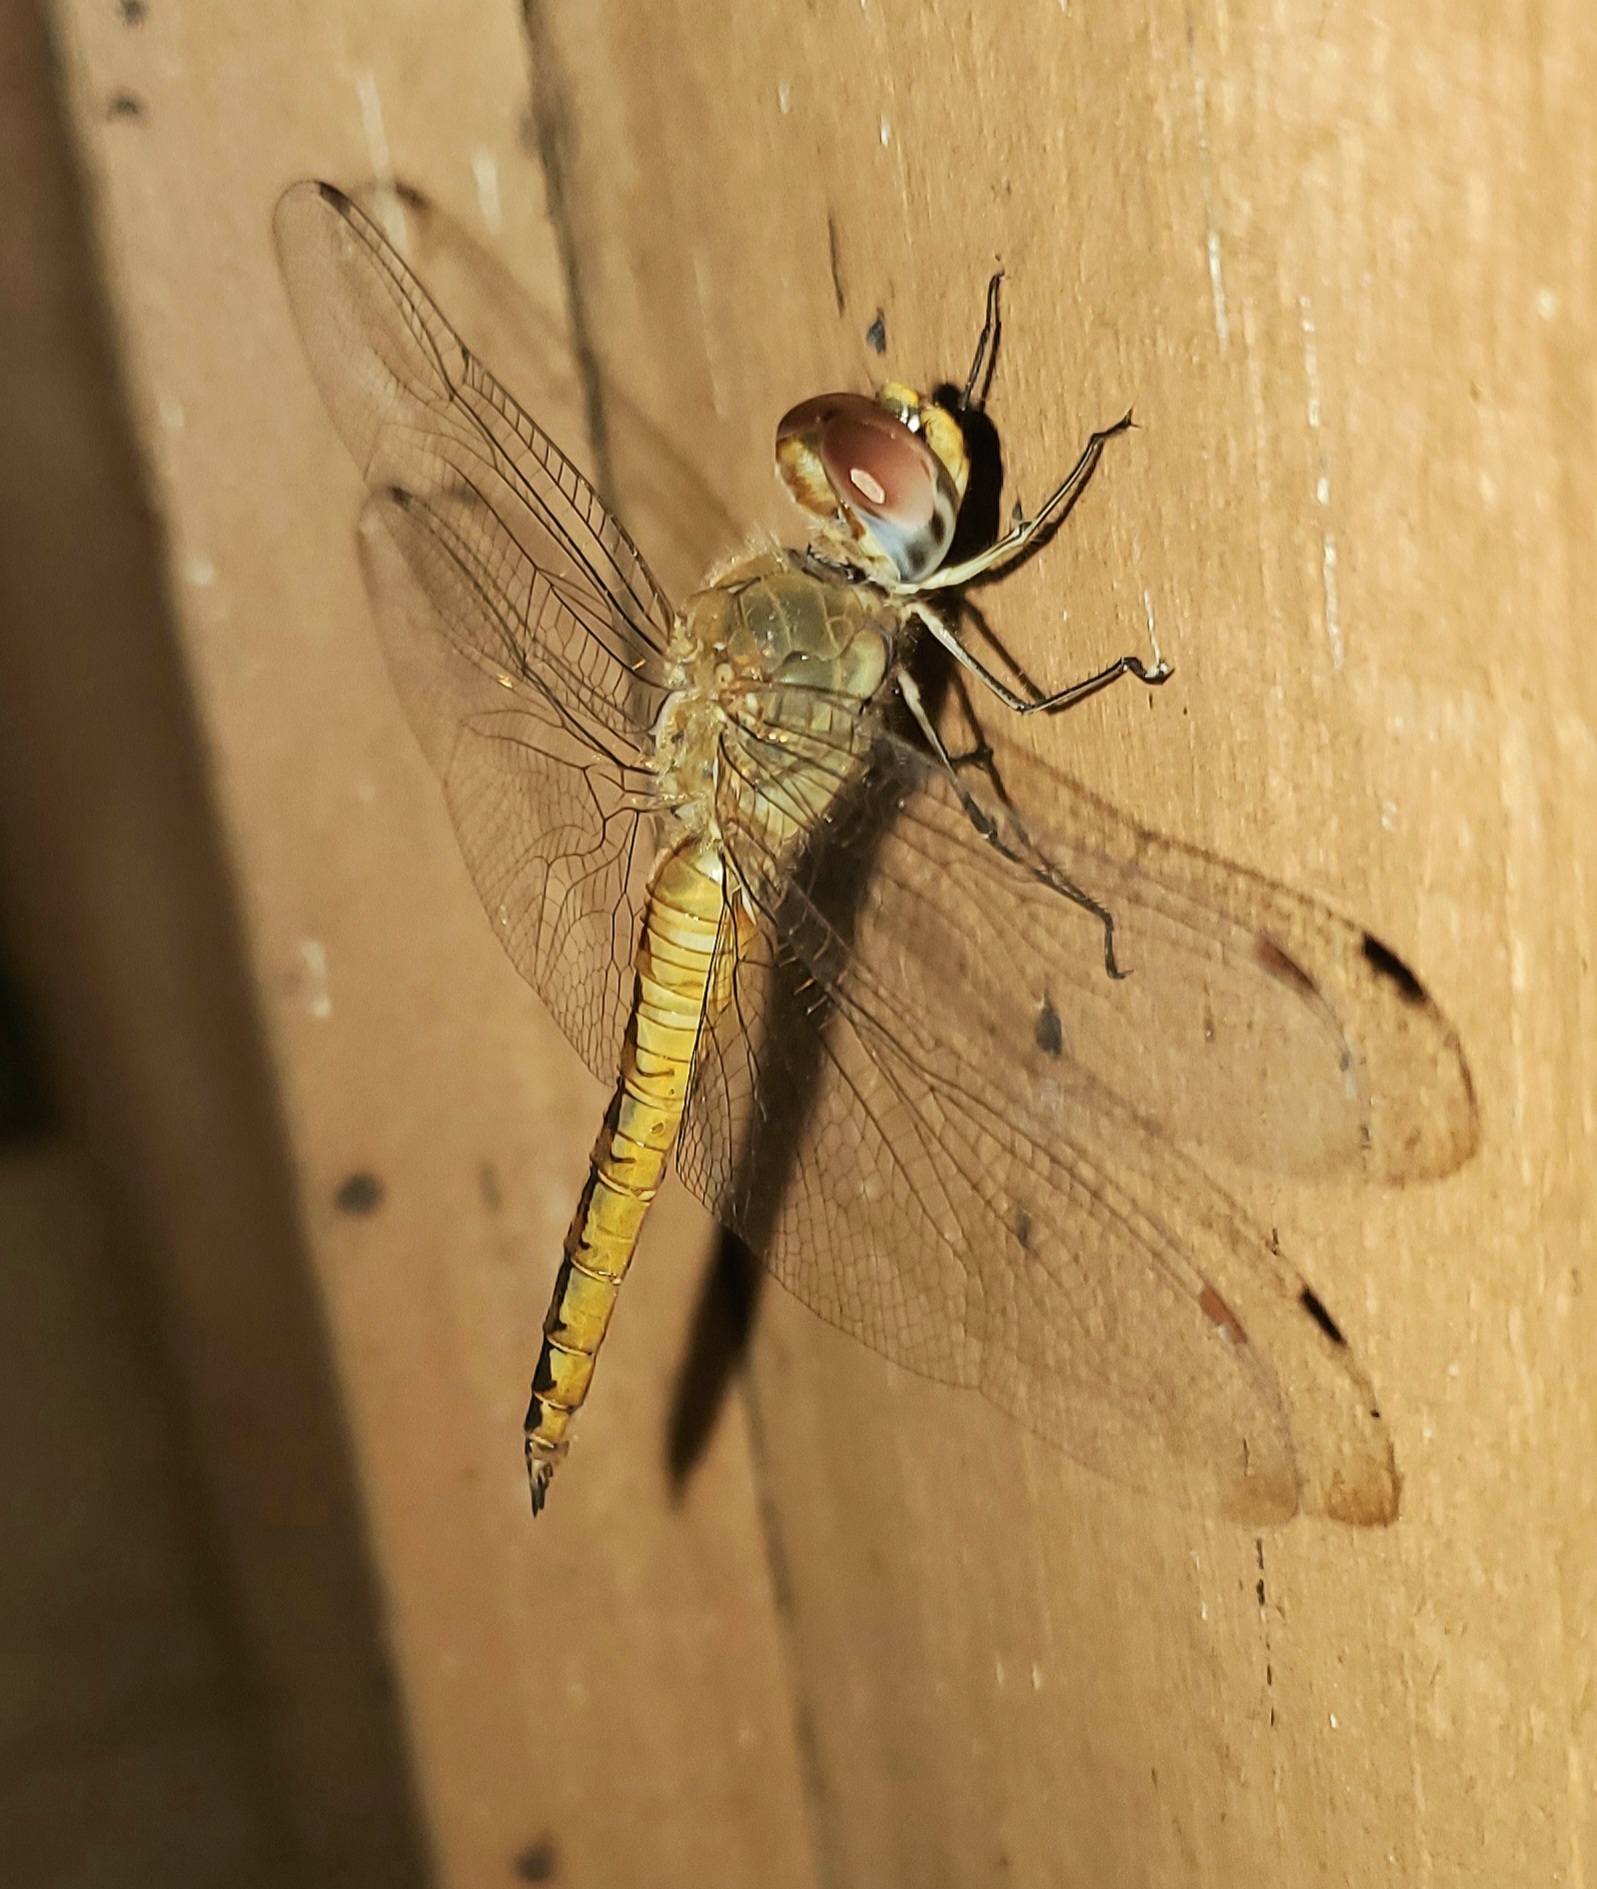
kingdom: Animalia
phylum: Arthropoda
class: Insecta
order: Odonata
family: Libellulidae
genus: Pantala
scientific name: Pantala flavescens
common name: Wandering glider
